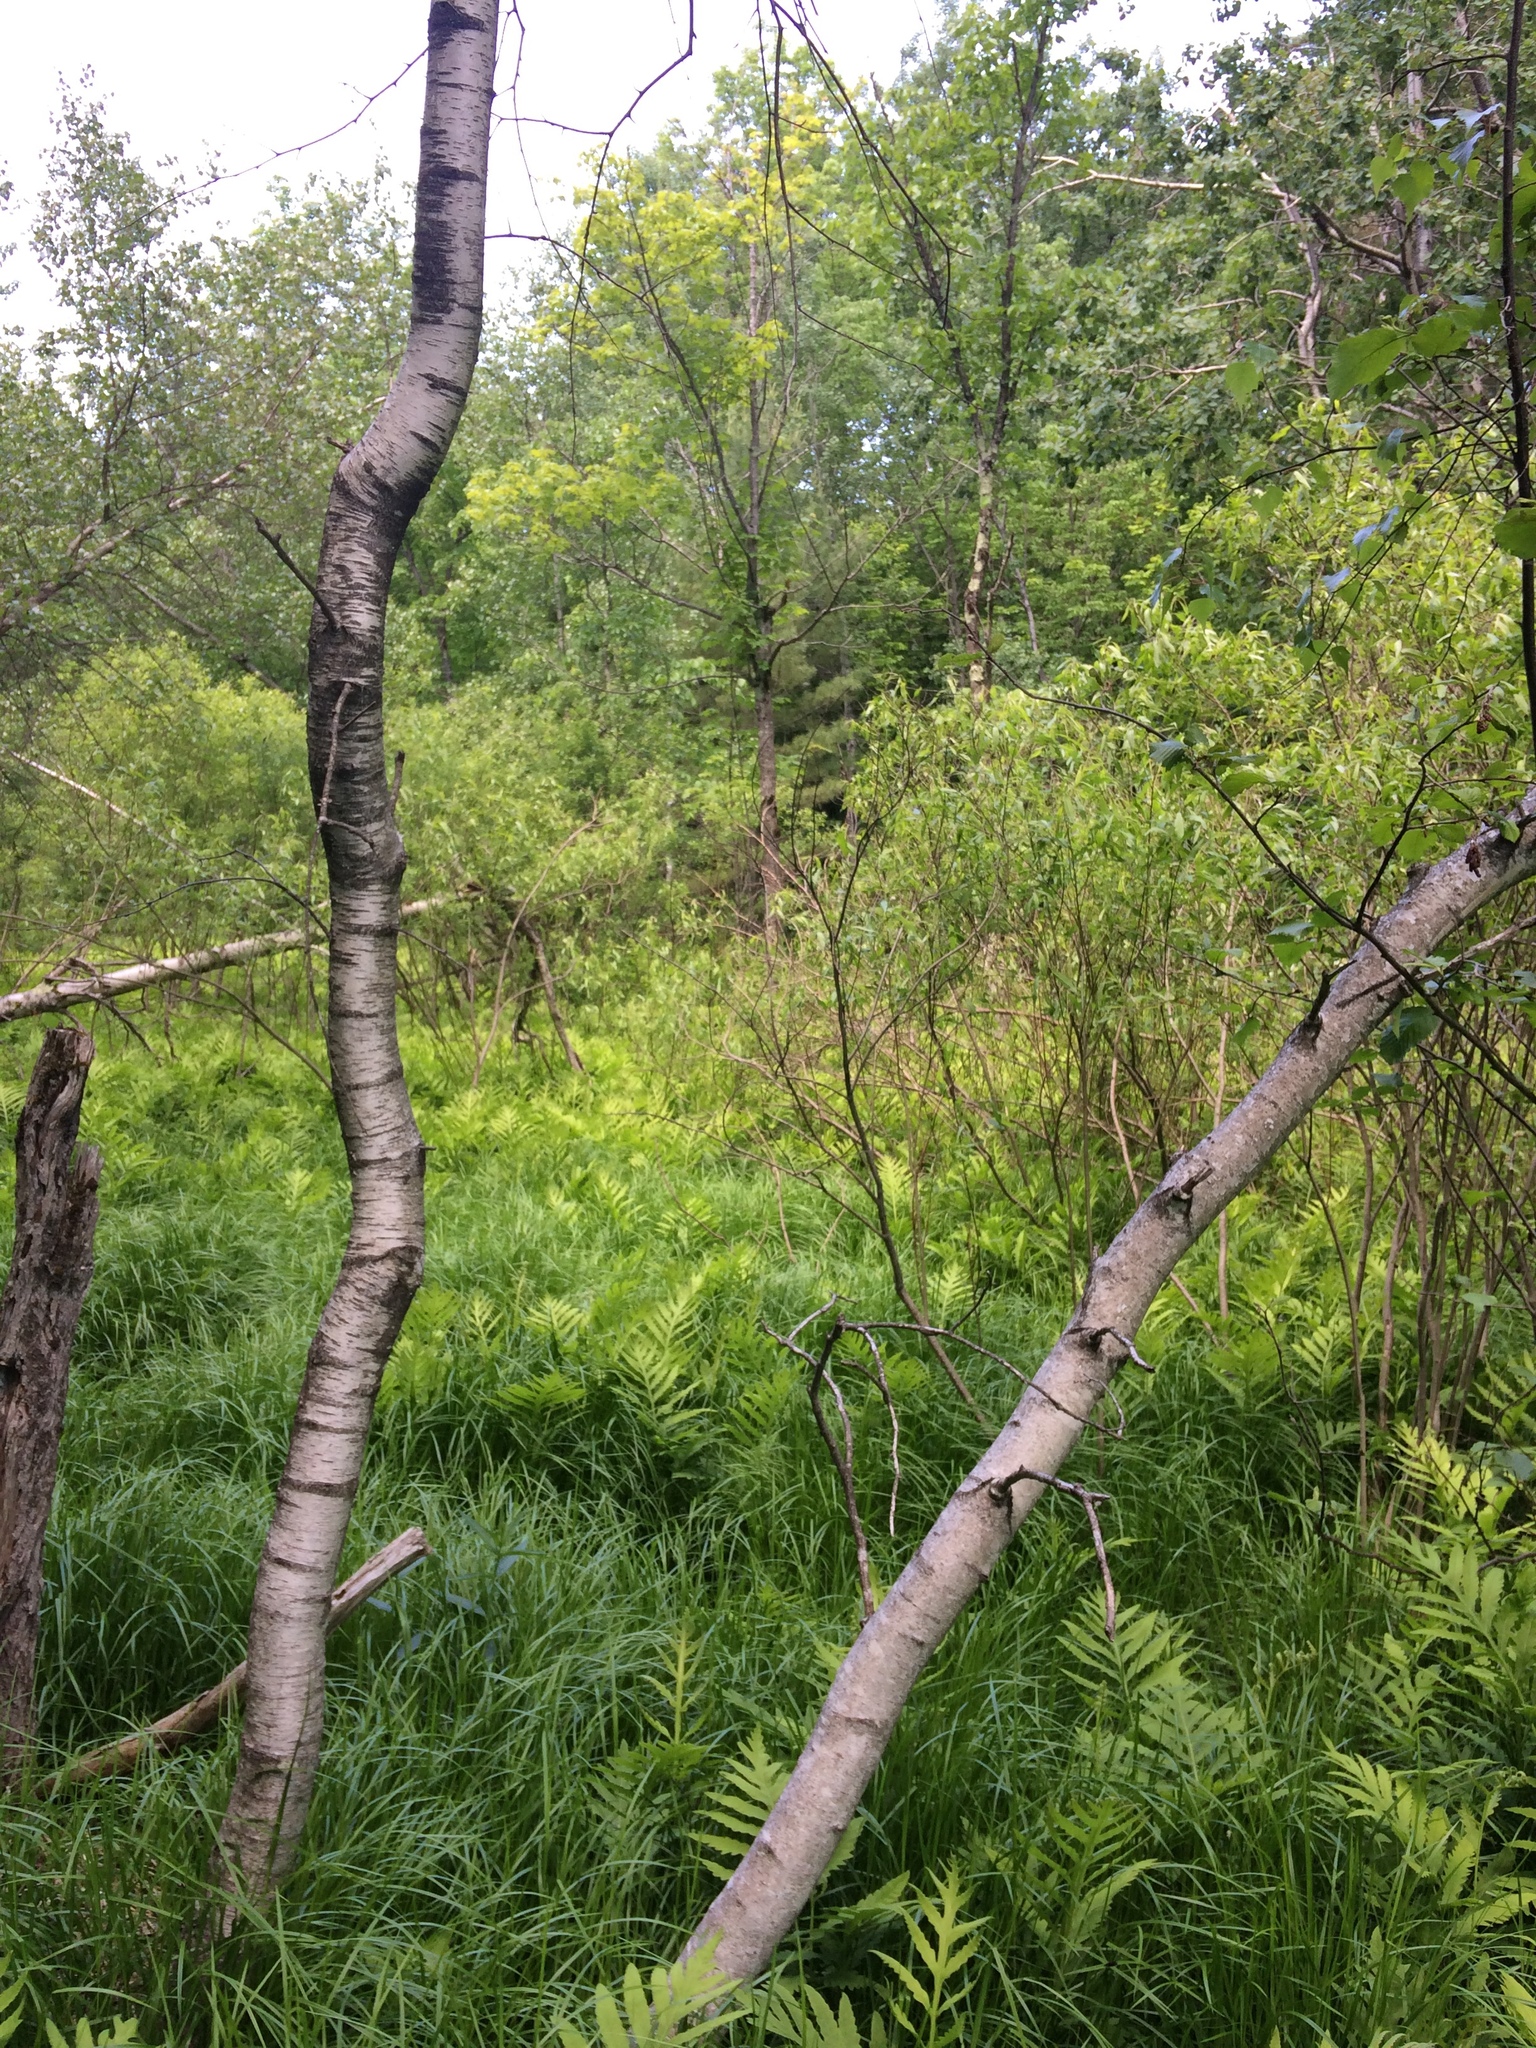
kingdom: Plantae
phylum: Tracheophyta
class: Magnoliopsida
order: Fagales
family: Betulaceae
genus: Betula
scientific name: Betula populifolia
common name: Fire birch
